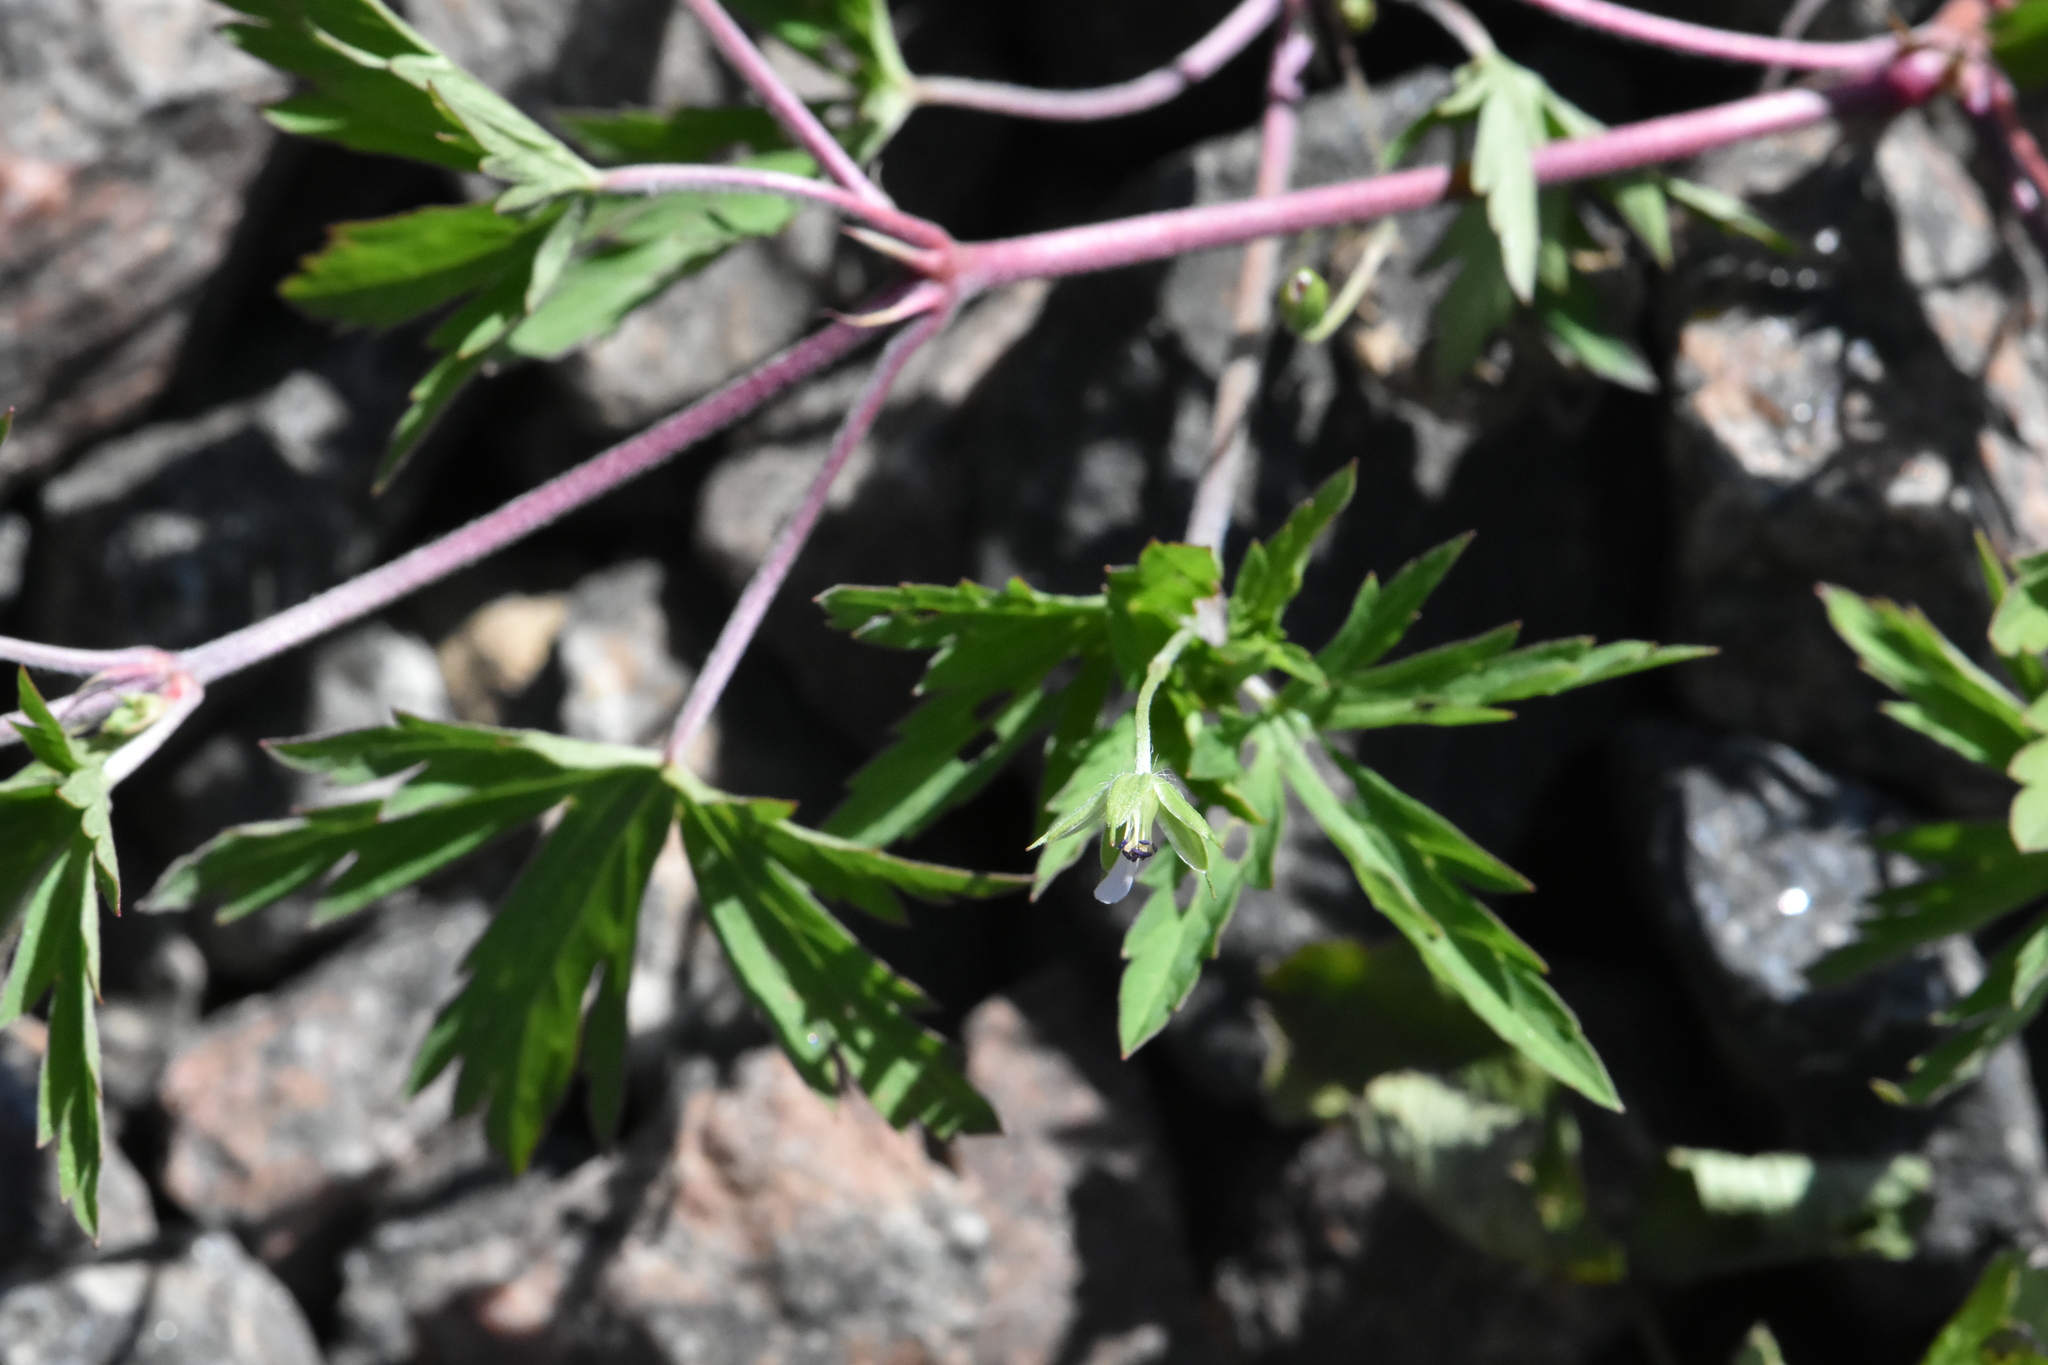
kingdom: Plantae
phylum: Tracheophyta
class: Magnoliopsida
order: Geraniales
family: Geraniaceae
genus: Geranium
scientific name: Geranium sibiricum
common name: Siberian crane's-bill
